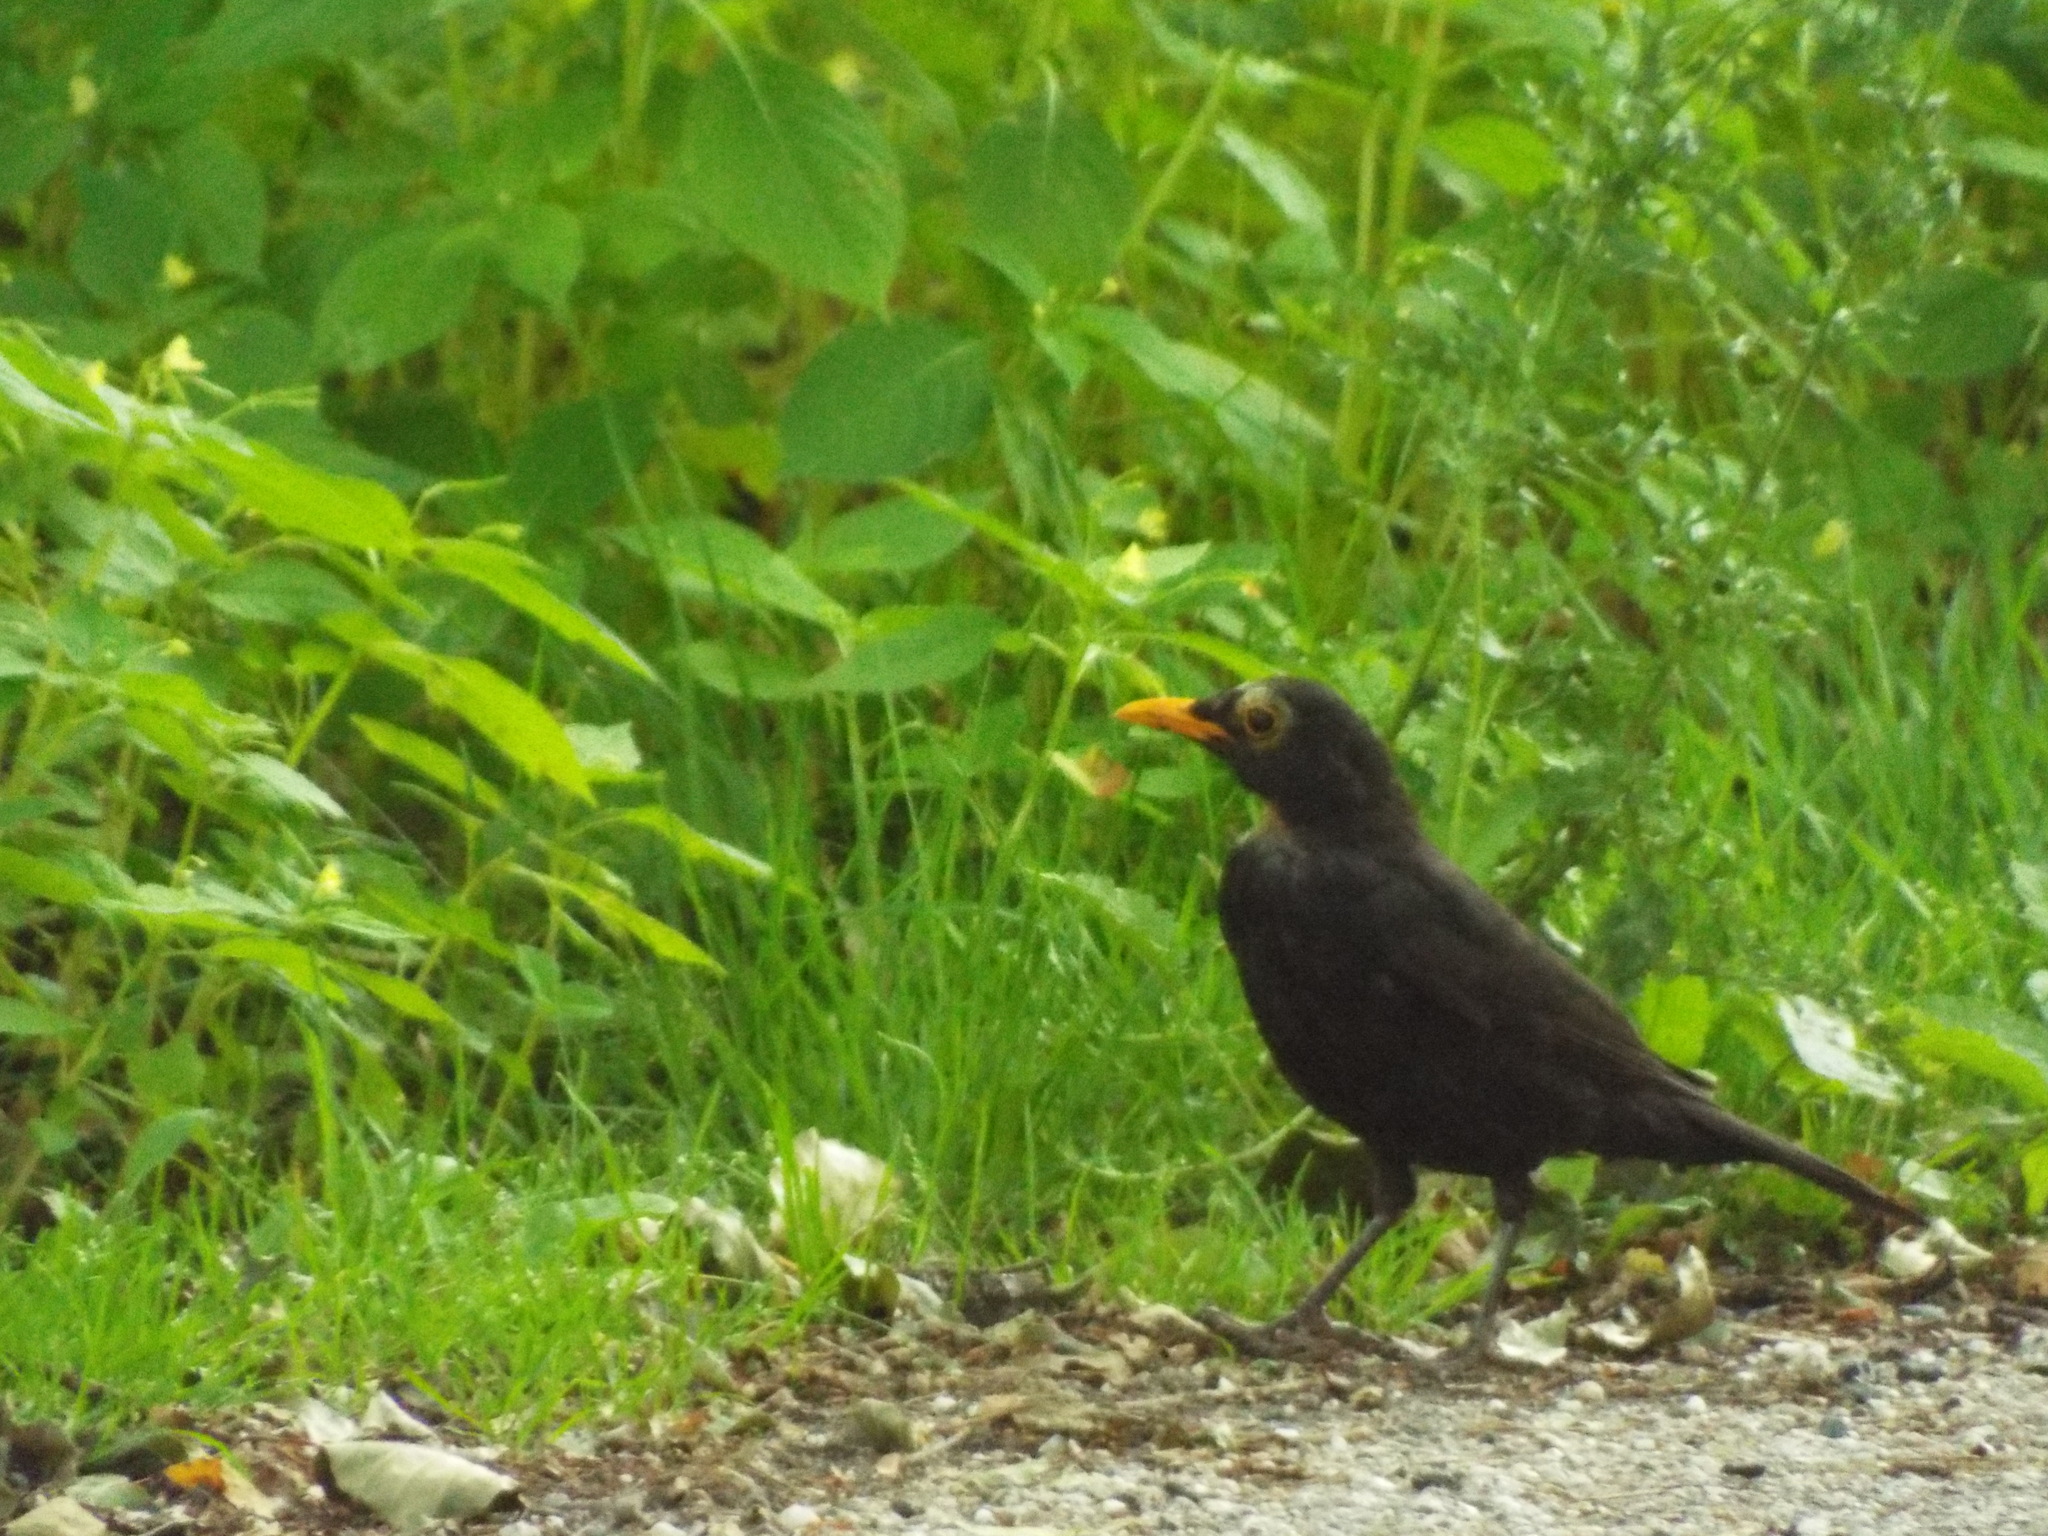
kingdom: Animalia
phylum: Chordata
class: Aves
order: Passeriformes
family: Turdidae
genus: Turdus
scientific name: Turdus merula
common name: Common blackbird
